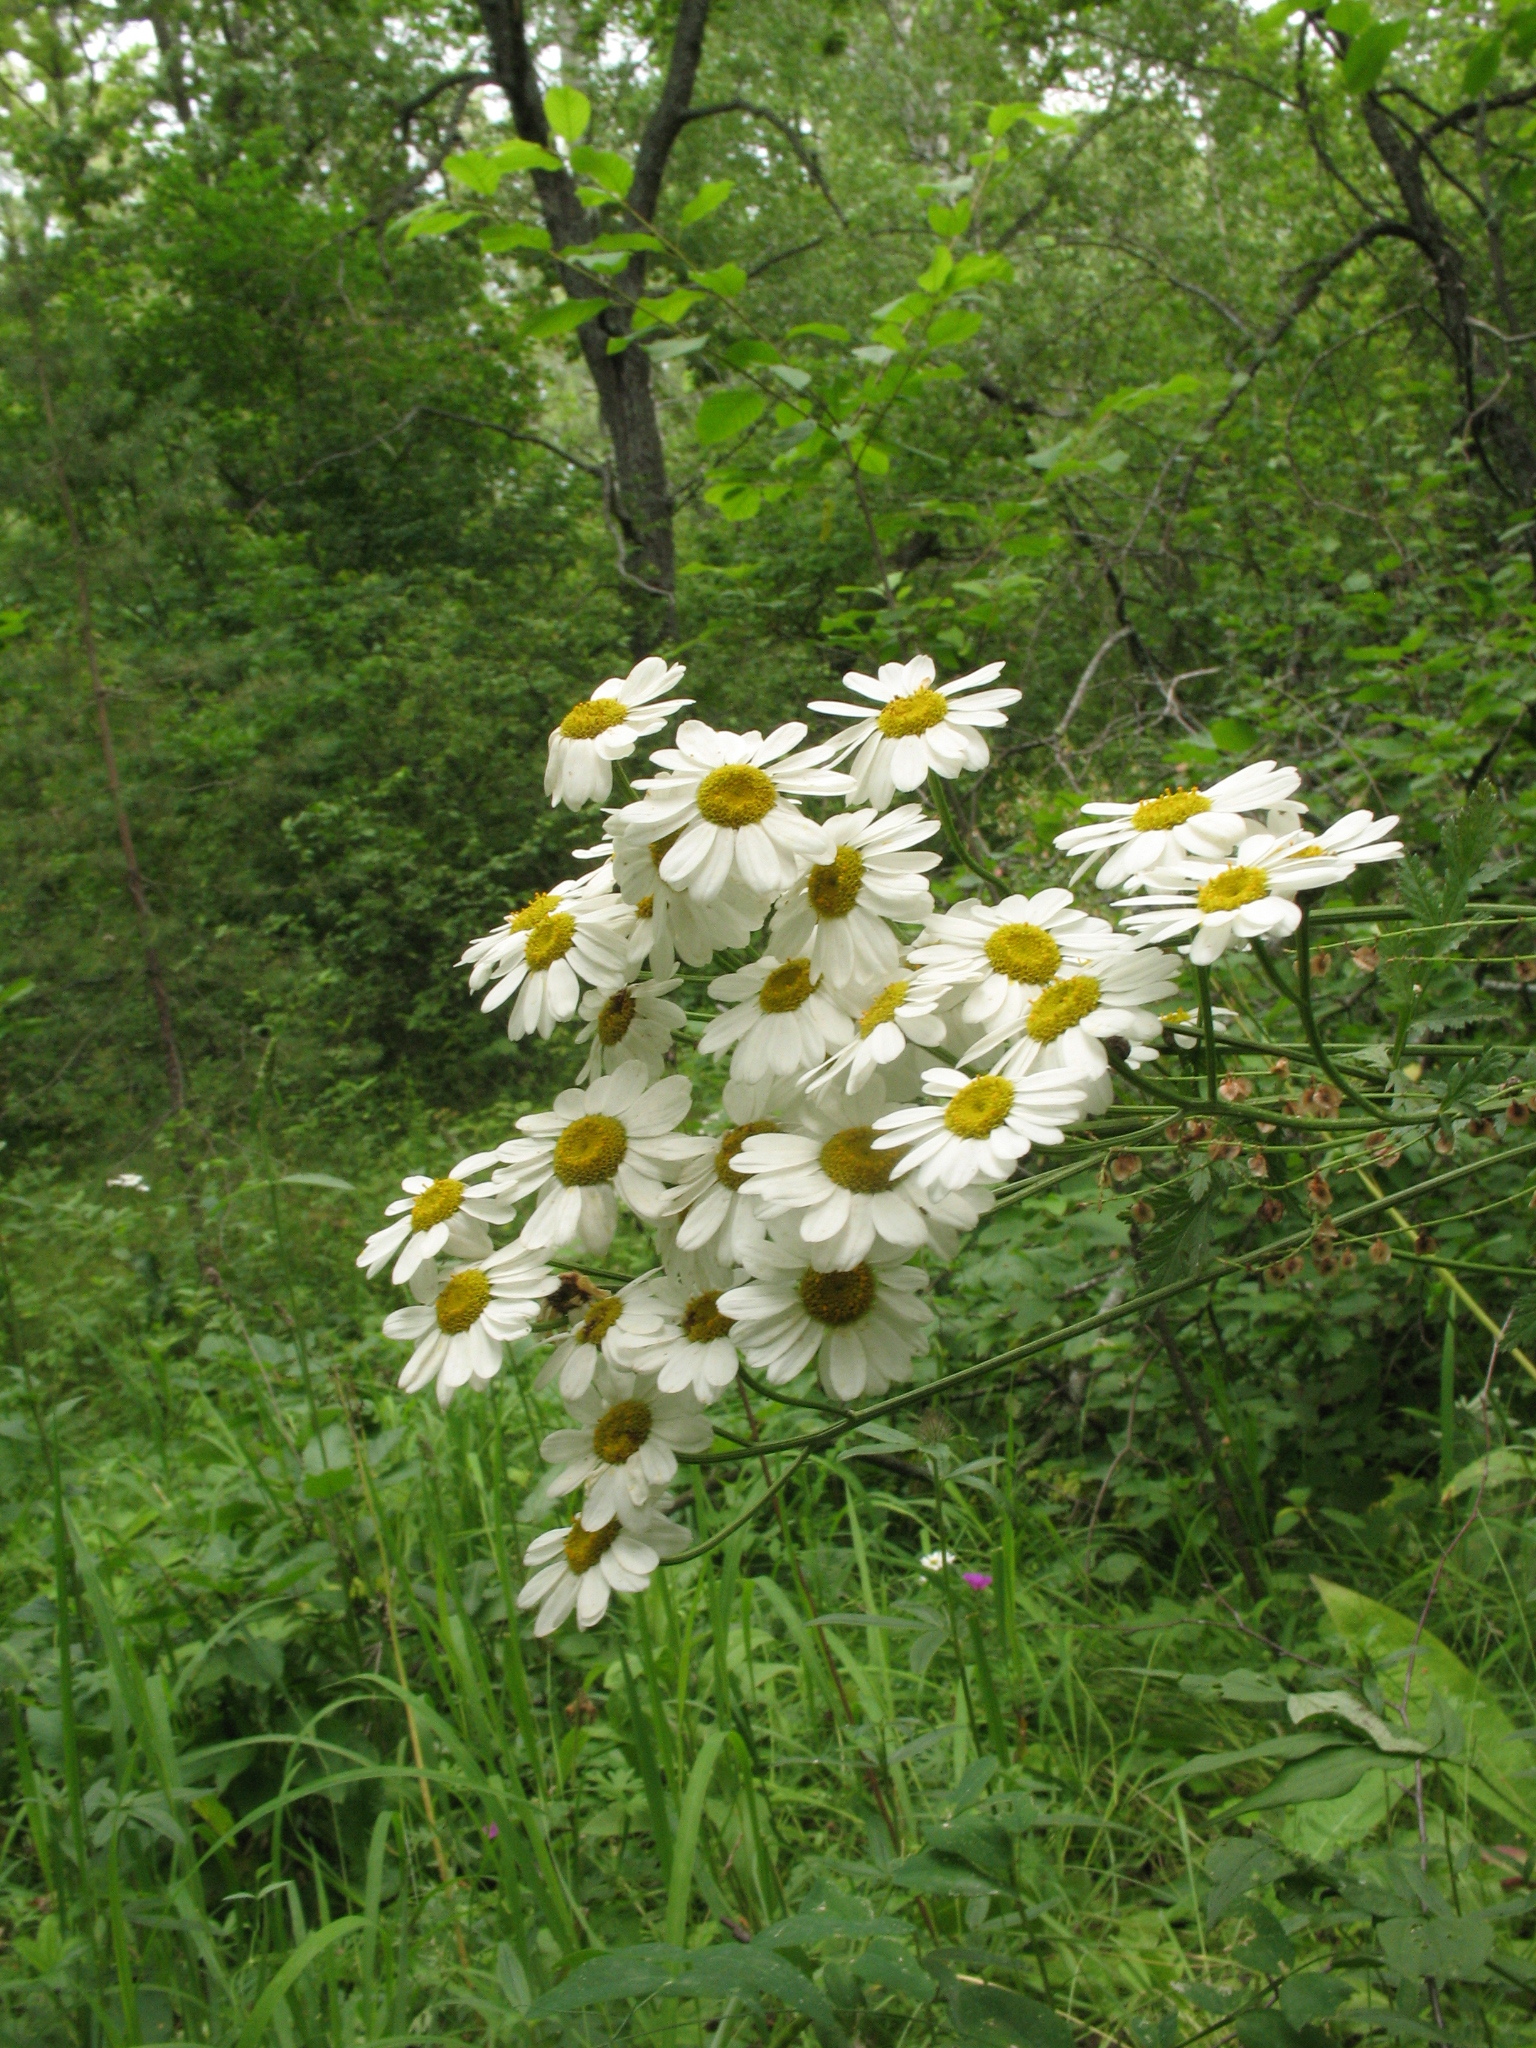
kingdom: Plantae
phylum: Tracheophyta
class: Magnoliopsida
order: Asterales
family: Asteraceae
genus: Tanacetum
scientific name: Tanacetum corymbosum
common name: Scentless feverfew
